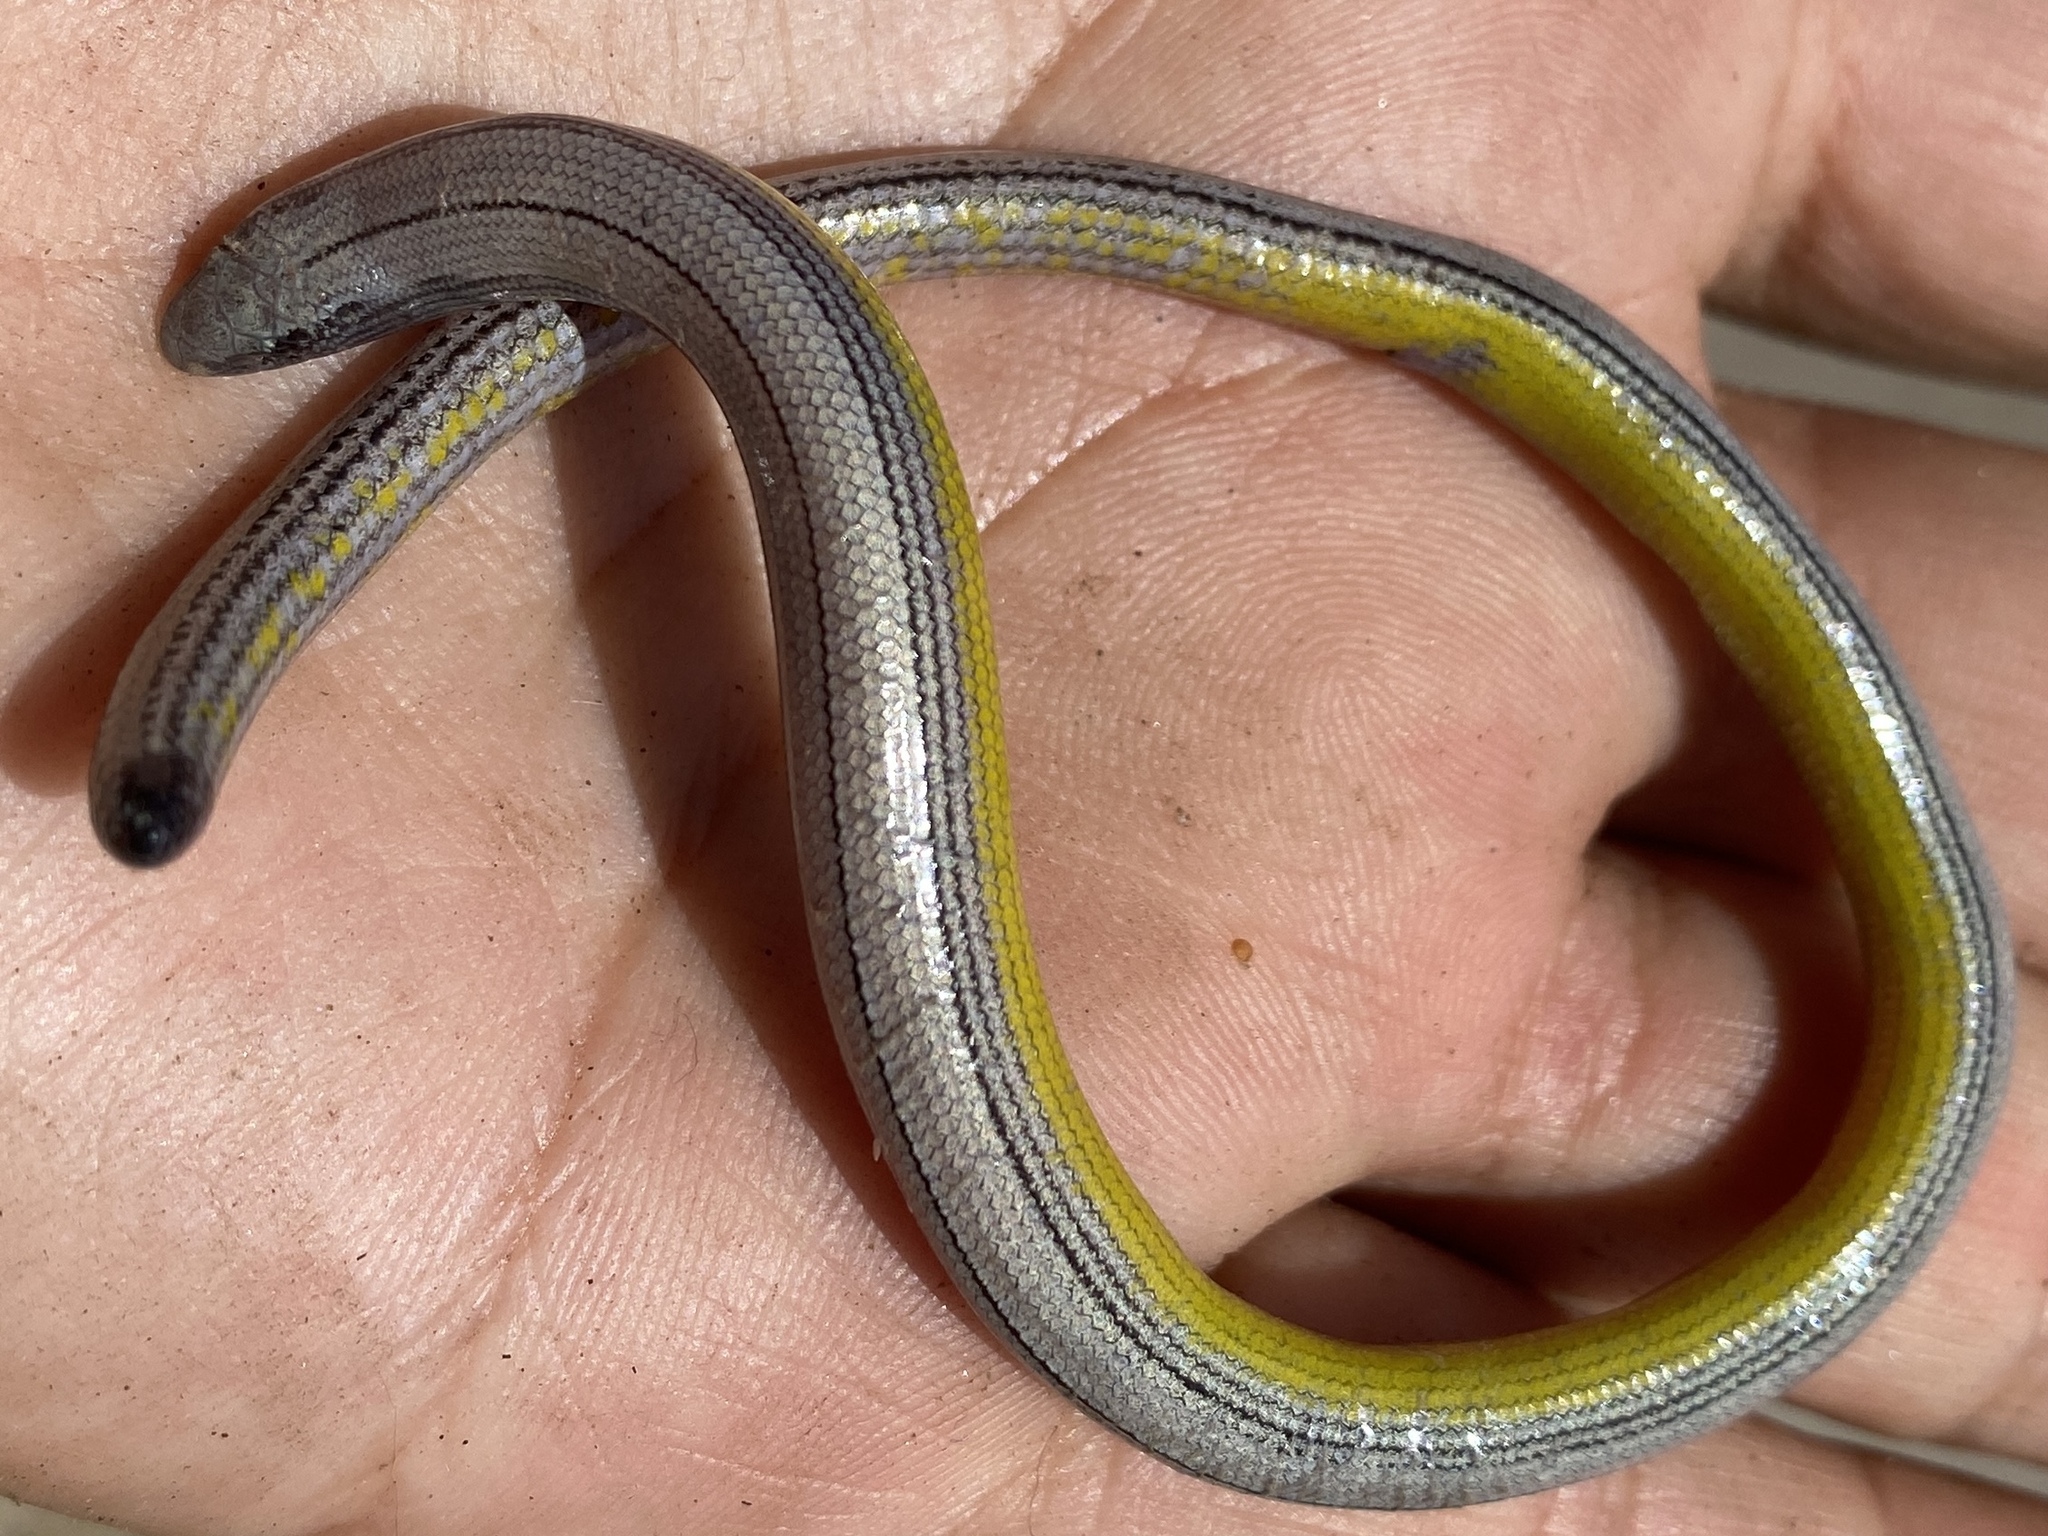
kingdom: Animalia
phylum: Chordata
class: Squamata
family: Anguidae
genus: Anniella
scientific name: Anniella pulchra
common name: California legless lizard
